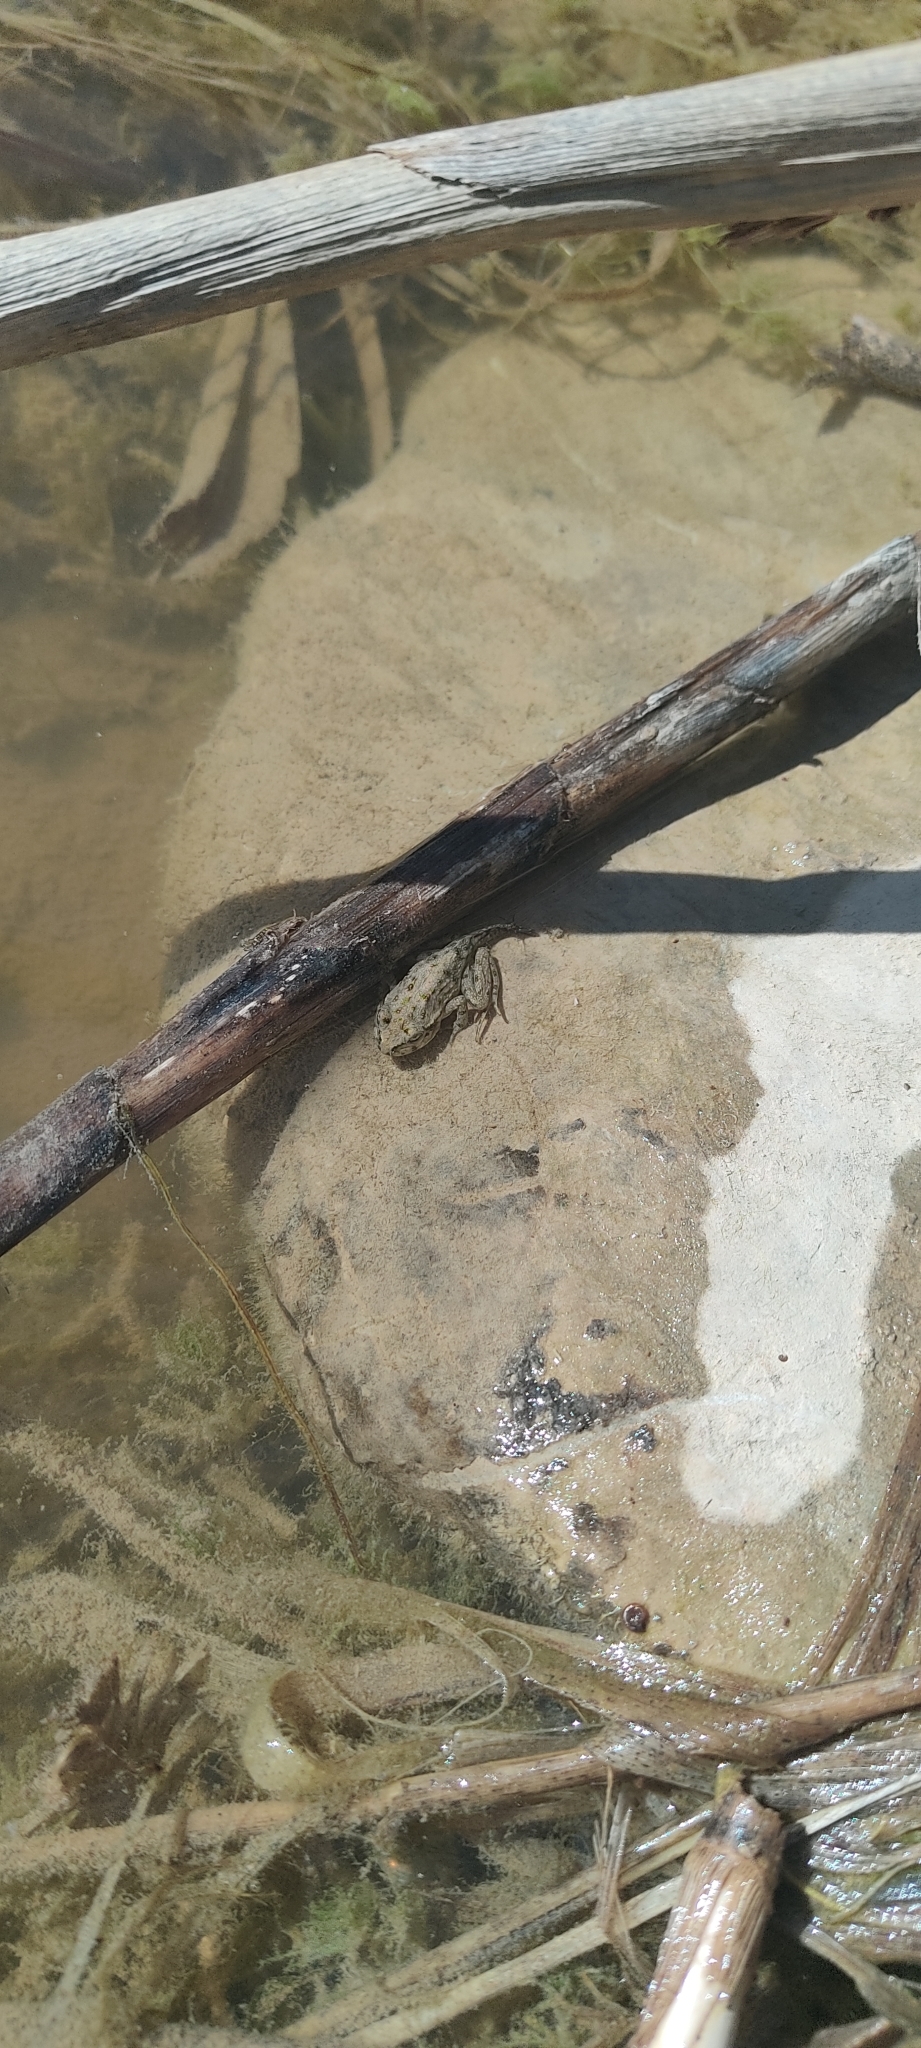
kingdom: Animalia
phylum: Chordata
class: Amphibia
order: Anura
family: Pelodytidae
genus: Pelodytes
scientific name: Pelodytes punctatus
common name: Parsley frog
